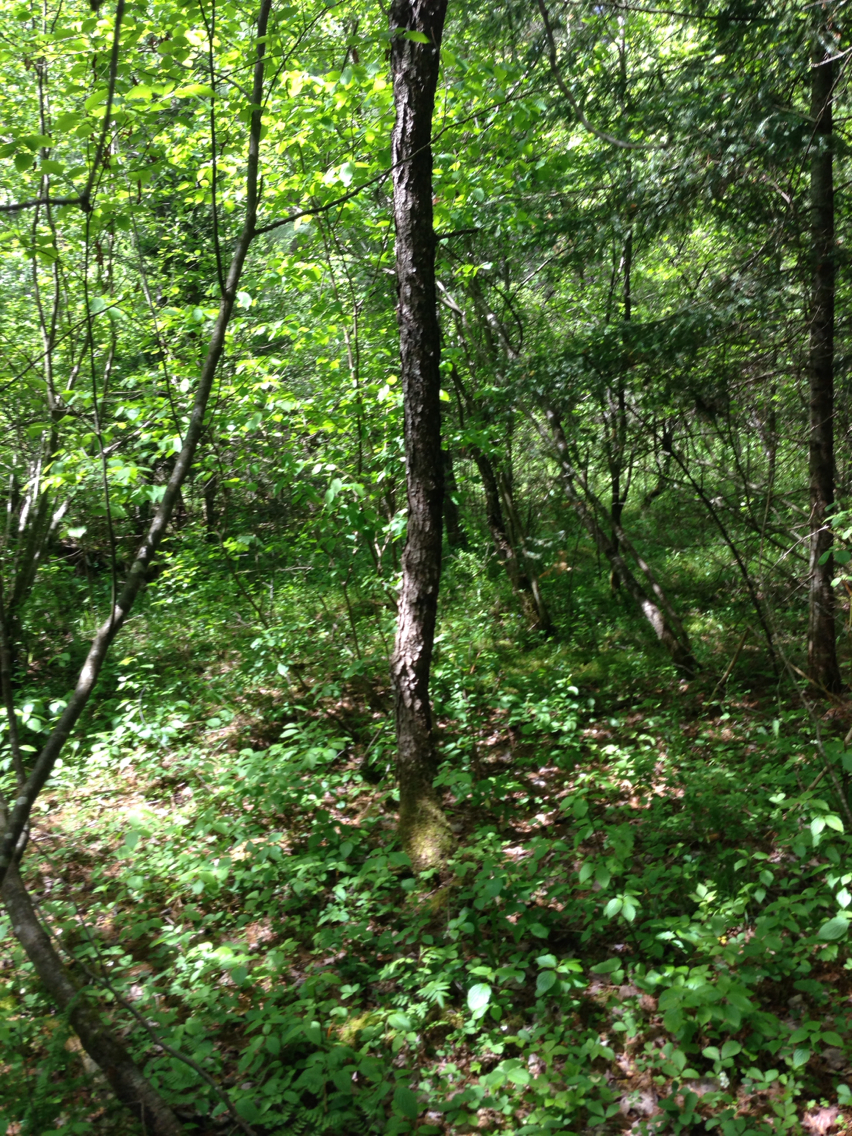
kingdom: Plantae
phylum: Tracheophyta
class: Magnoliopsida
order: Rosales
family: Rosaceae
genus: Prunus
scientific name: Prunus serotina
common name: Black cherry
